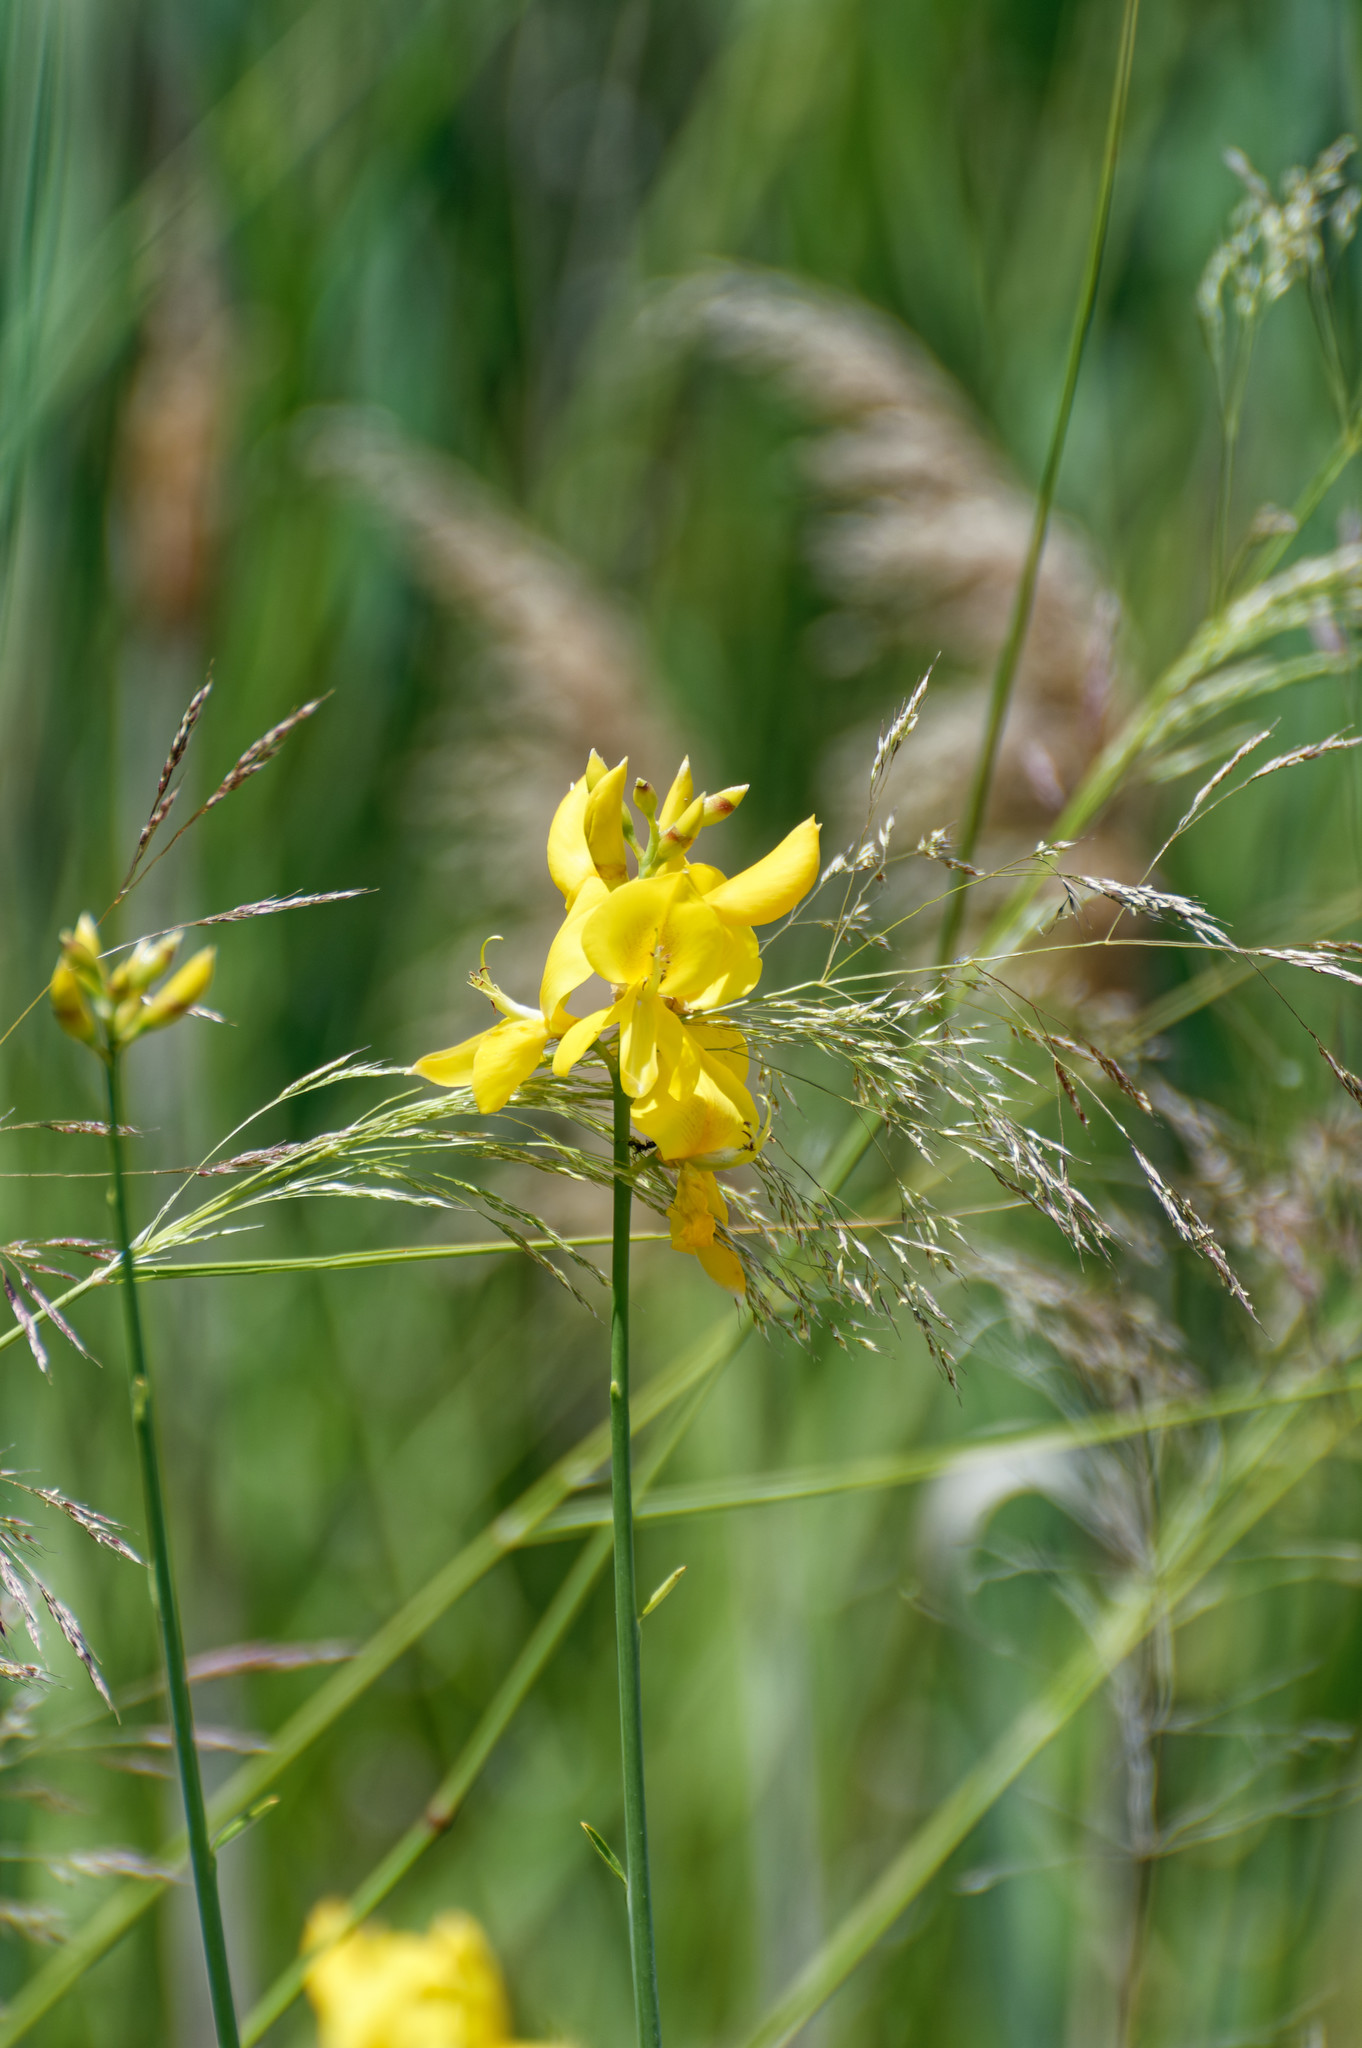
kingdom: Plantae
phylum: Tracheophyta
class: Magnoliopsida
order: Fabales
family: Fabaceae
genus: Spartium
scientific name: Spartium junceum
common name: Spanish broom
